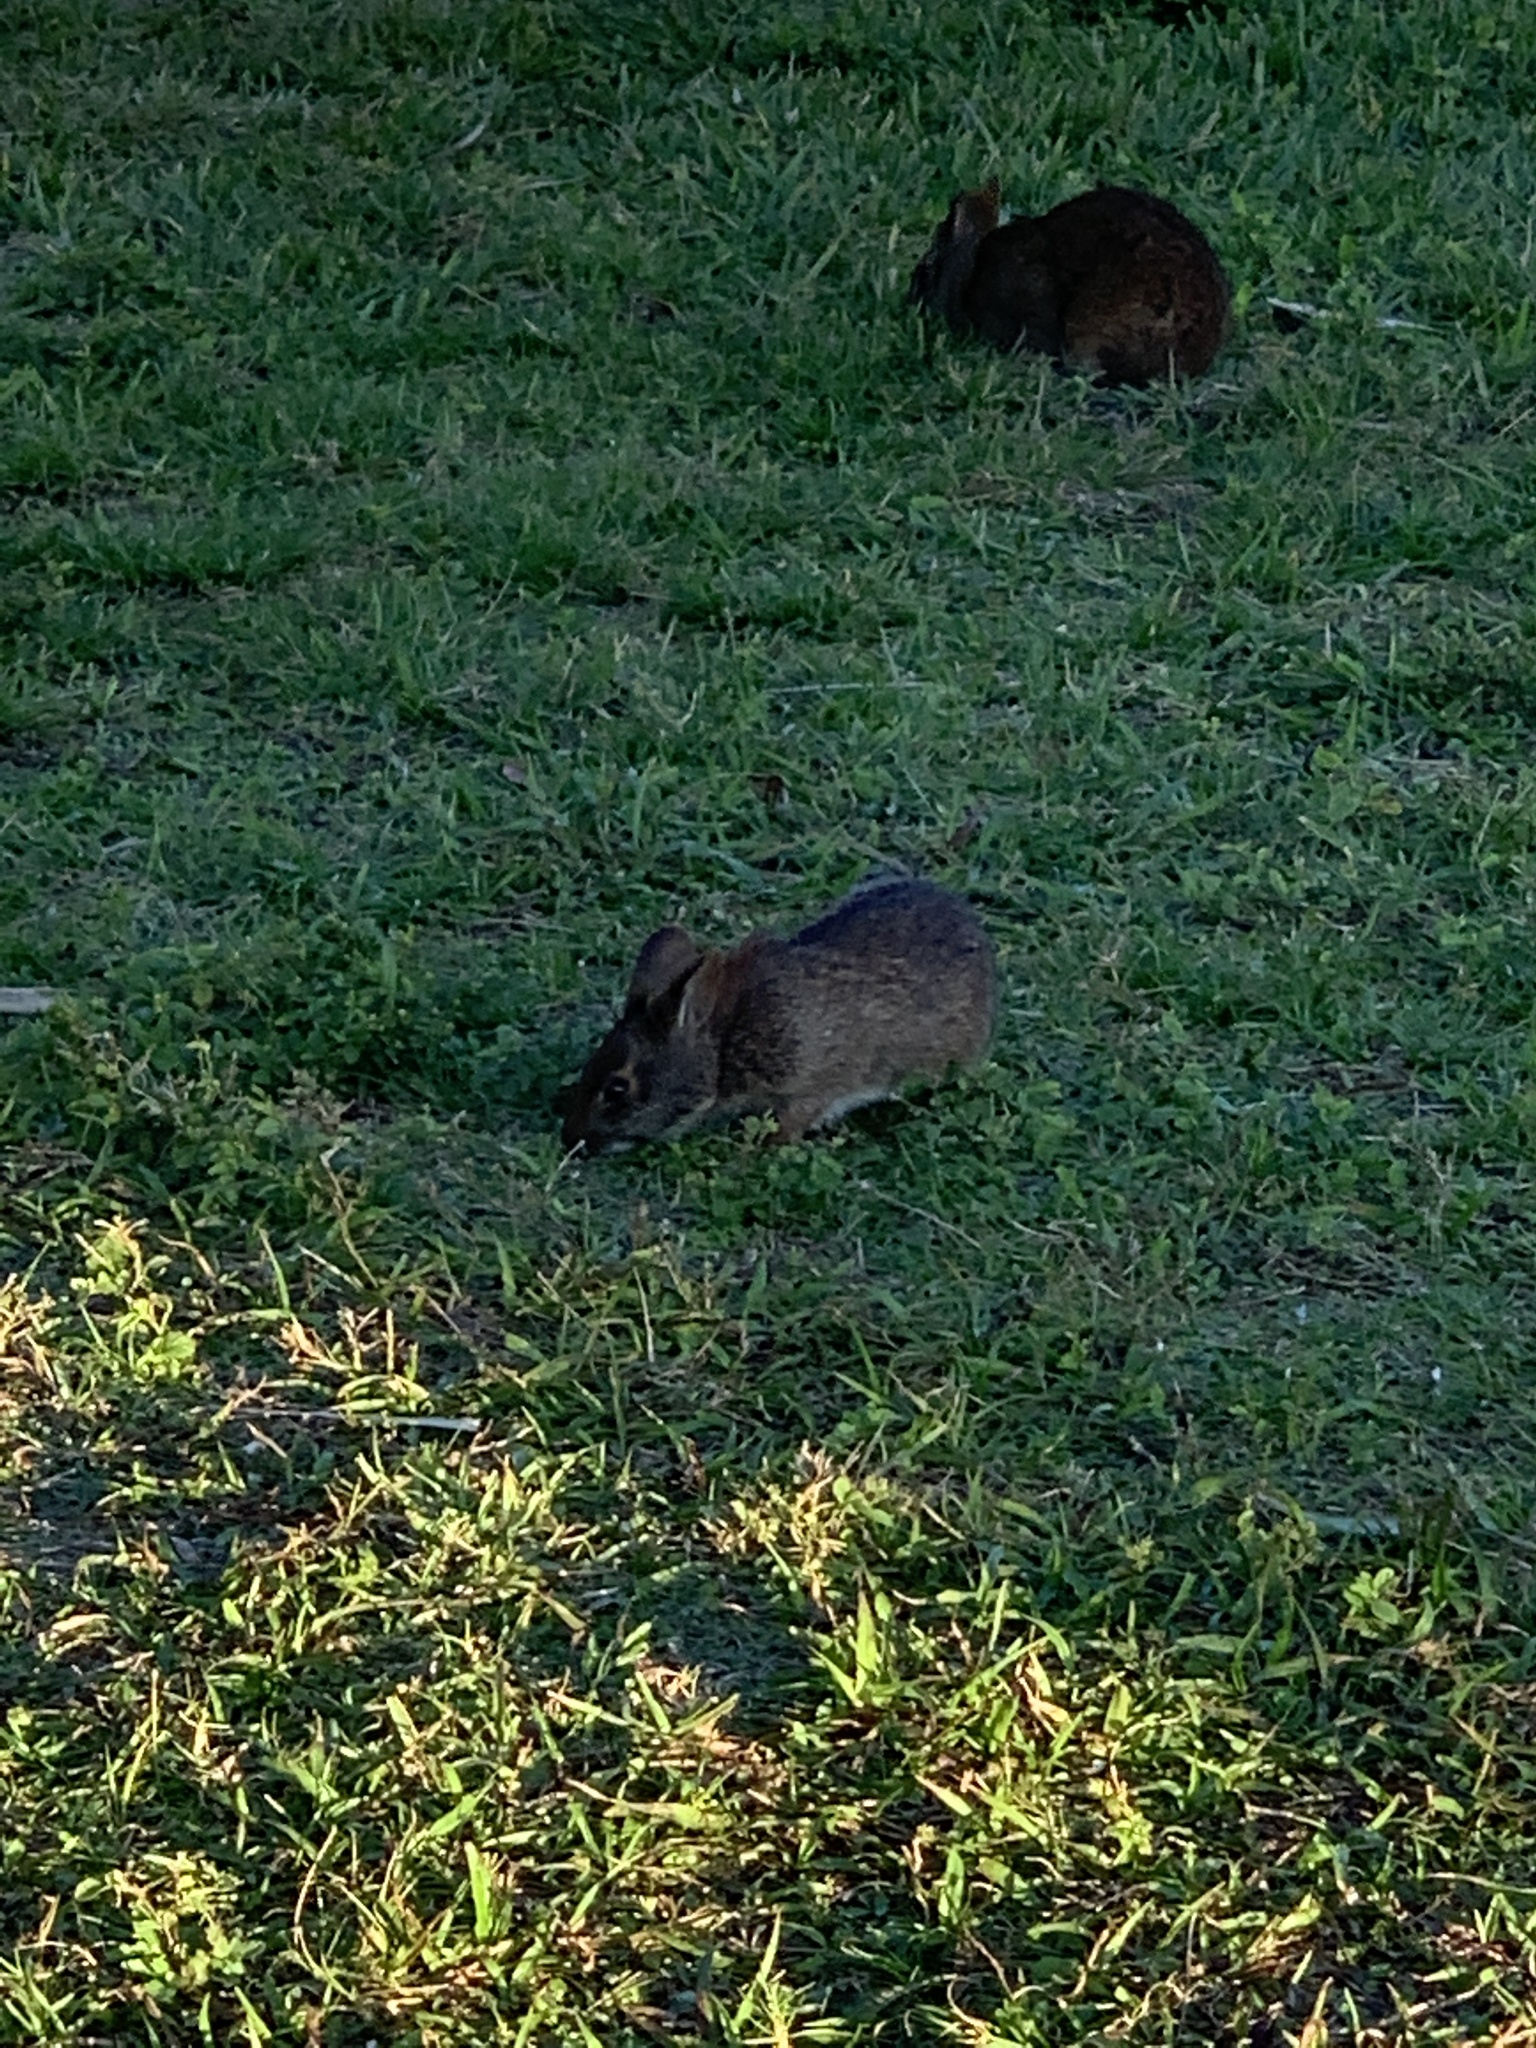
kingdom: Animalia
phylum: Chordata
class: Mammalia
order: Lagomorpha
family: Leporidae
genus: Sylvilagus
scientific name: Sylvilagus palustris
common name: Marsh rabbit
